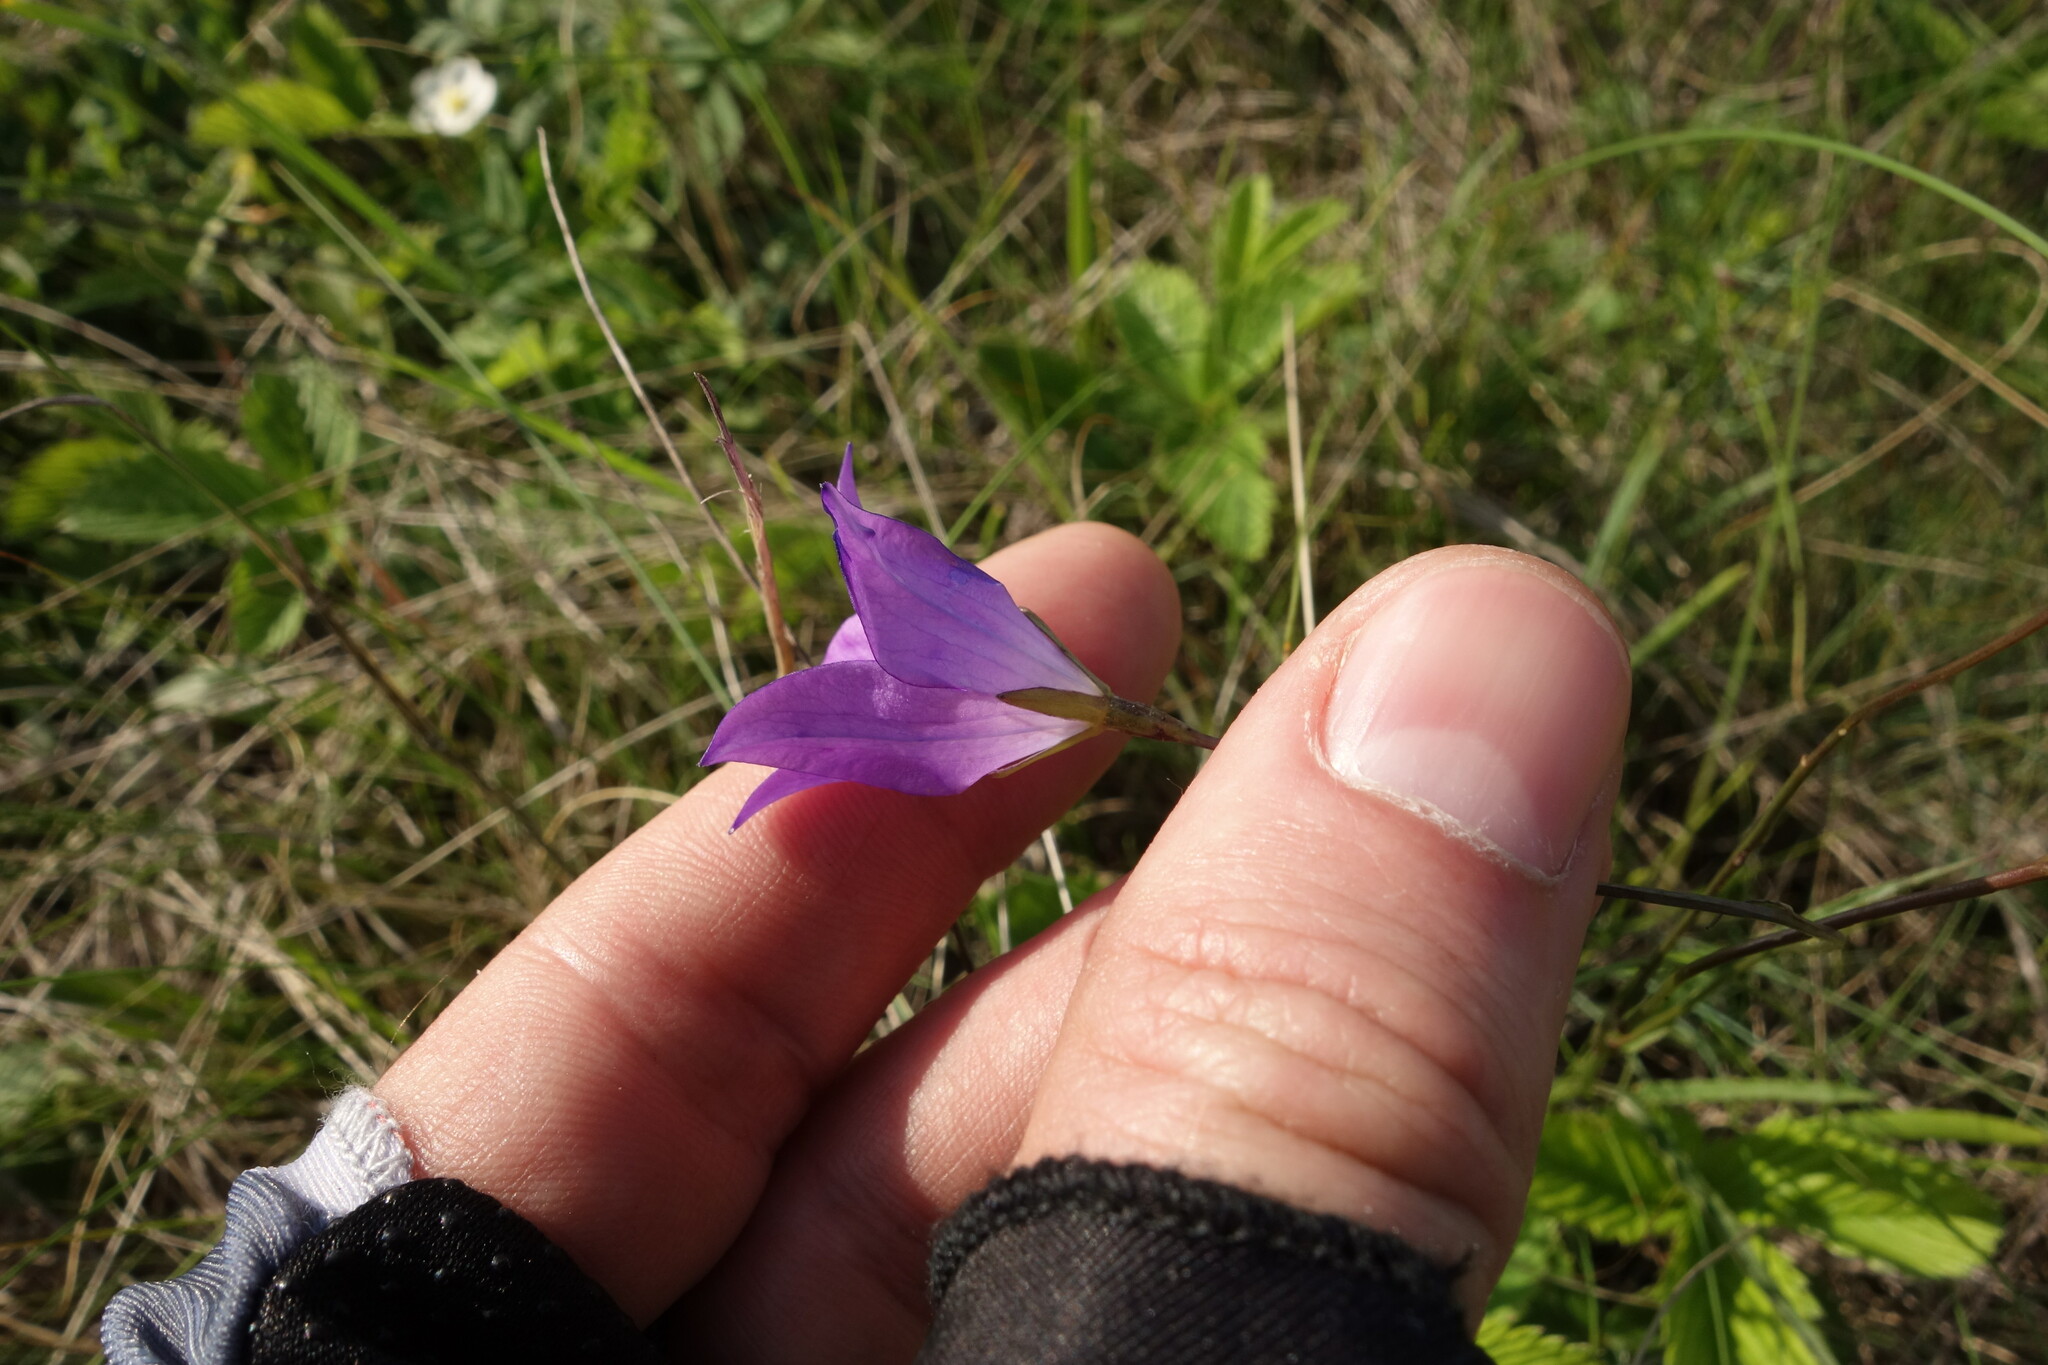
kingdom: Plantae
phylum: Tracheophyta
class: Magnoliopsida
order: Asterales
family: Campanulaceae
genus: Campanula
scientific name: Campanula stevenii
